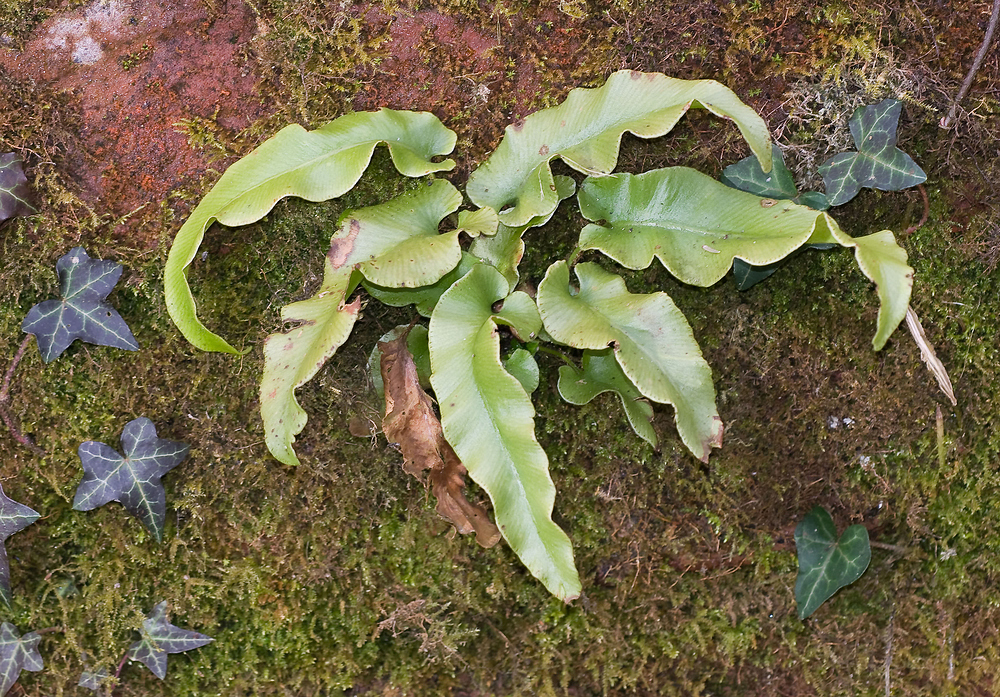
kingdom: Plantae
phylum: Tracheophyta
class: Polypodiopsida
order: Polypodiales
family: Aspleniaceae
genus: Asplenium
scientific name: Asplenium scolopendrium
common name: Hart's-tongue fern
